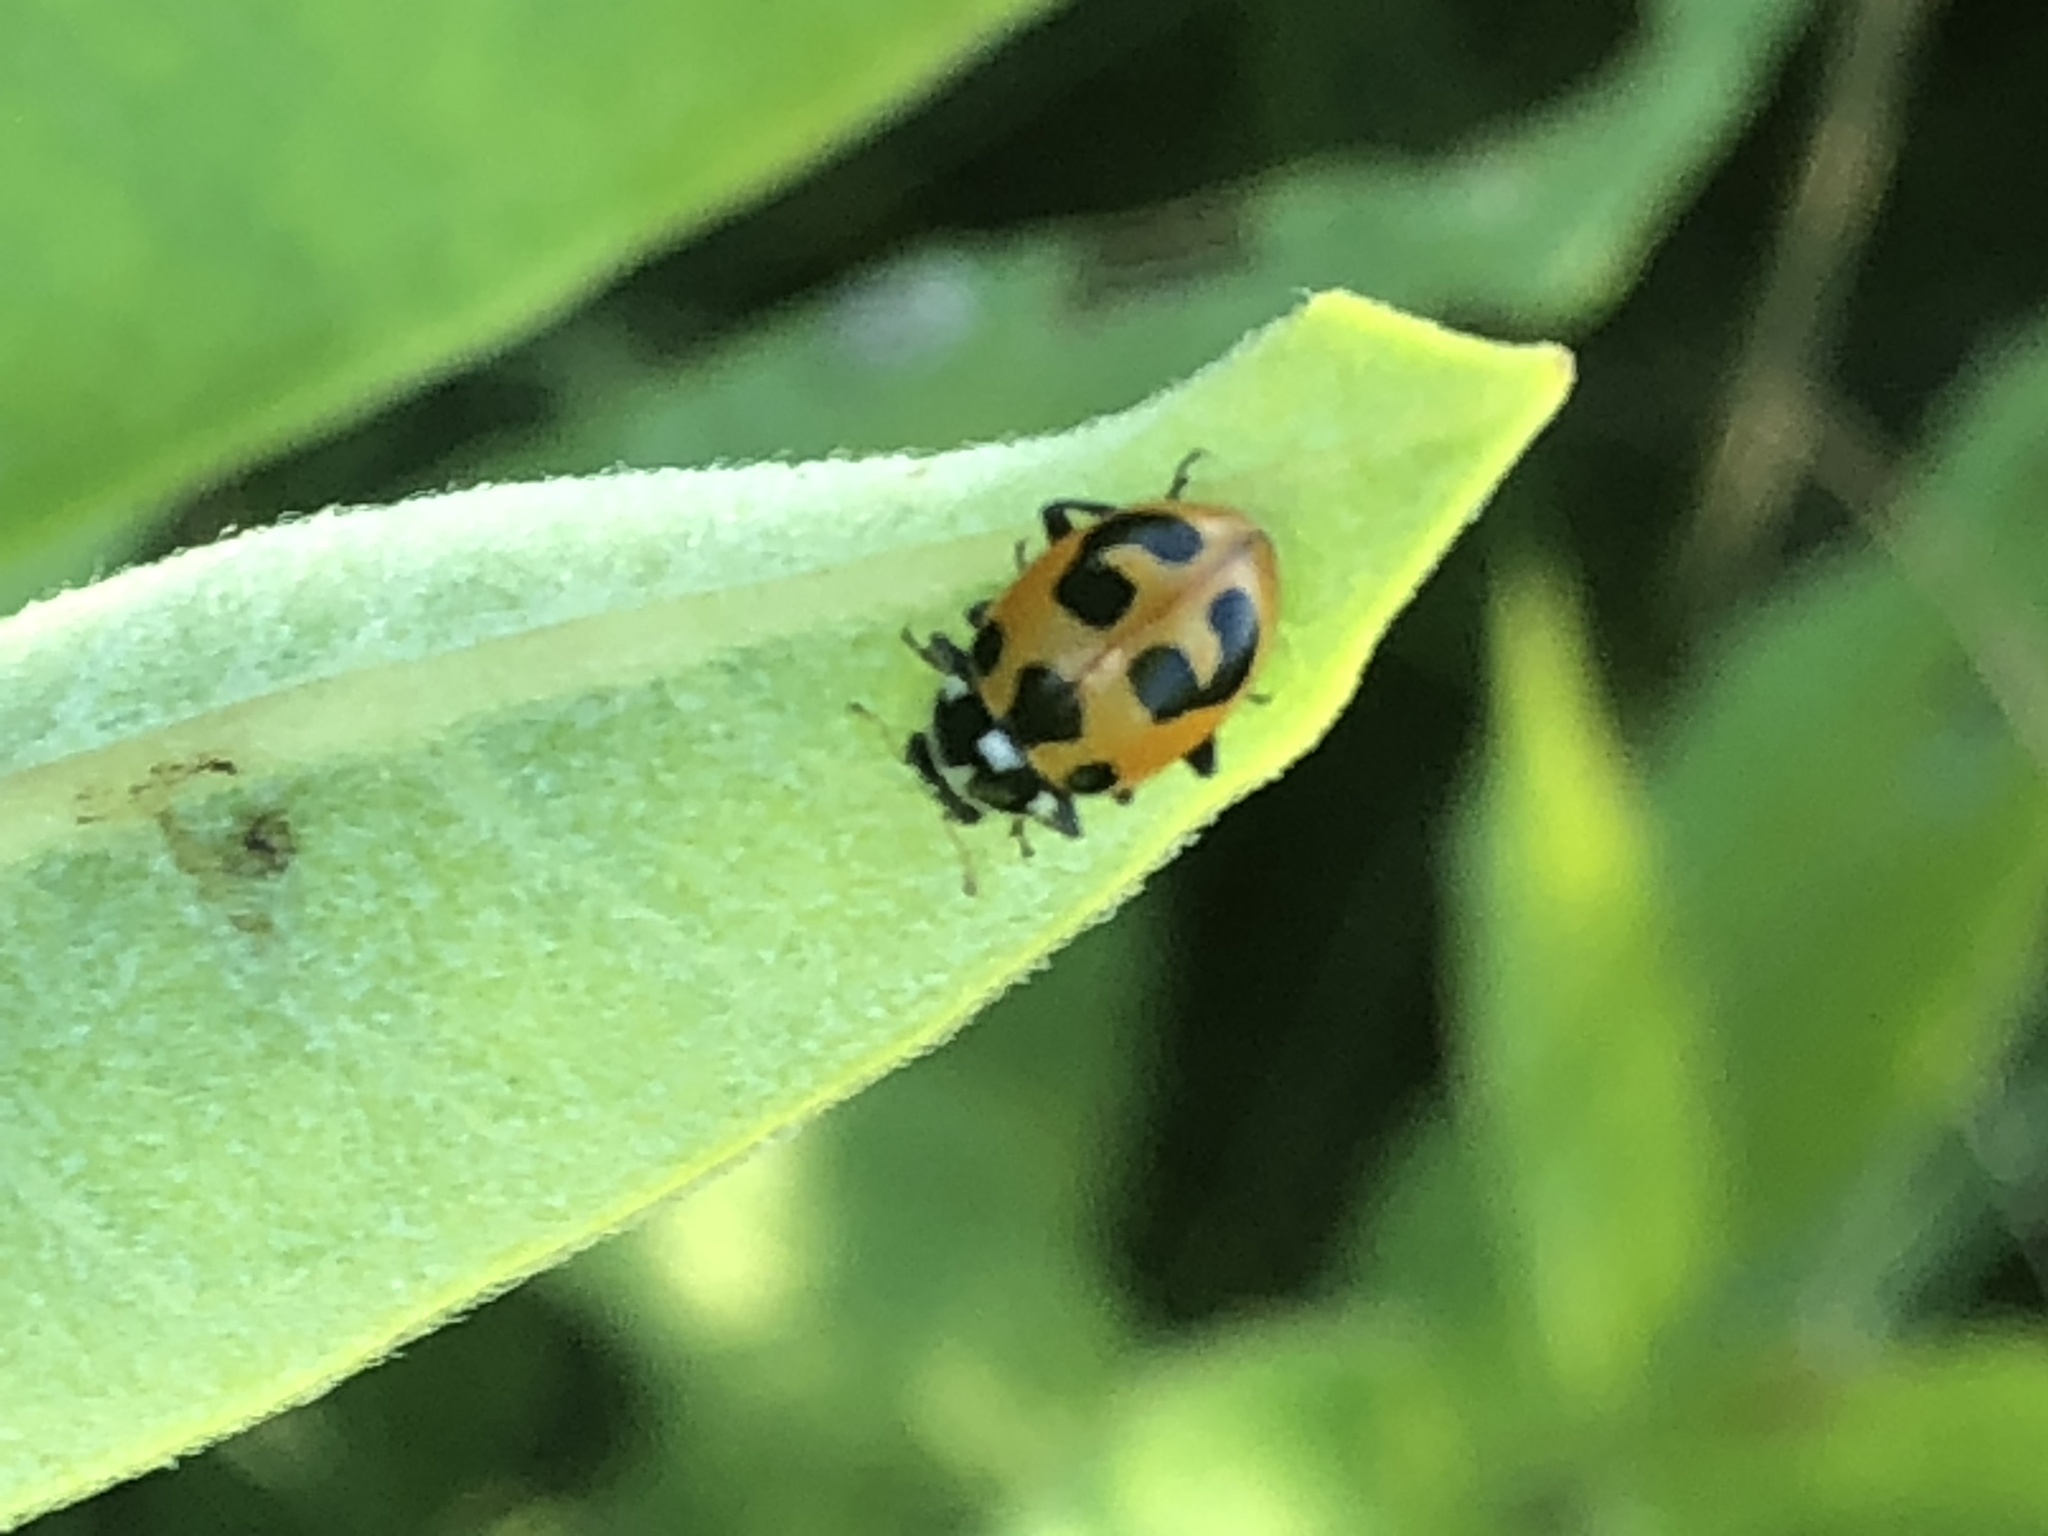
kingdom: Animalia
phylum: Arthropoda
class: Insecta
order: Coleoptera
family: Coccinellidae
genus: Hippodamia
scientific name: Hippodamia parenthesis
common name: Parenthesis lady beetle
